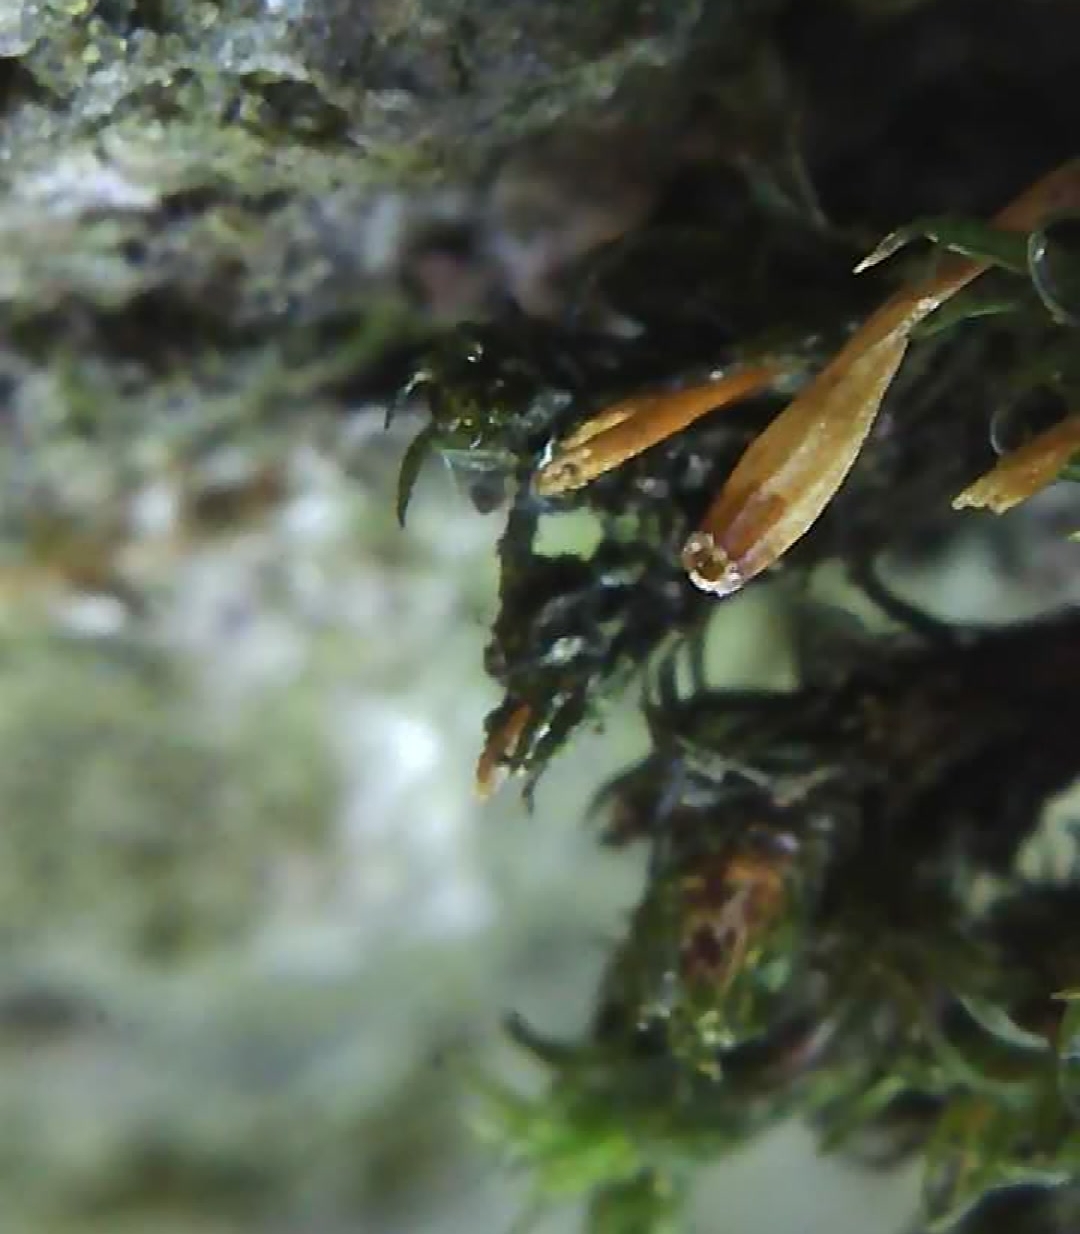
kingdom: Plantae
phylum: Bryophyta
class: Bryopsida
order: Orthotrichales
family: Orthotrichaceae
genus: Ulota
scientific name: Ulota bruchii
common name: Bruch's pincushion
